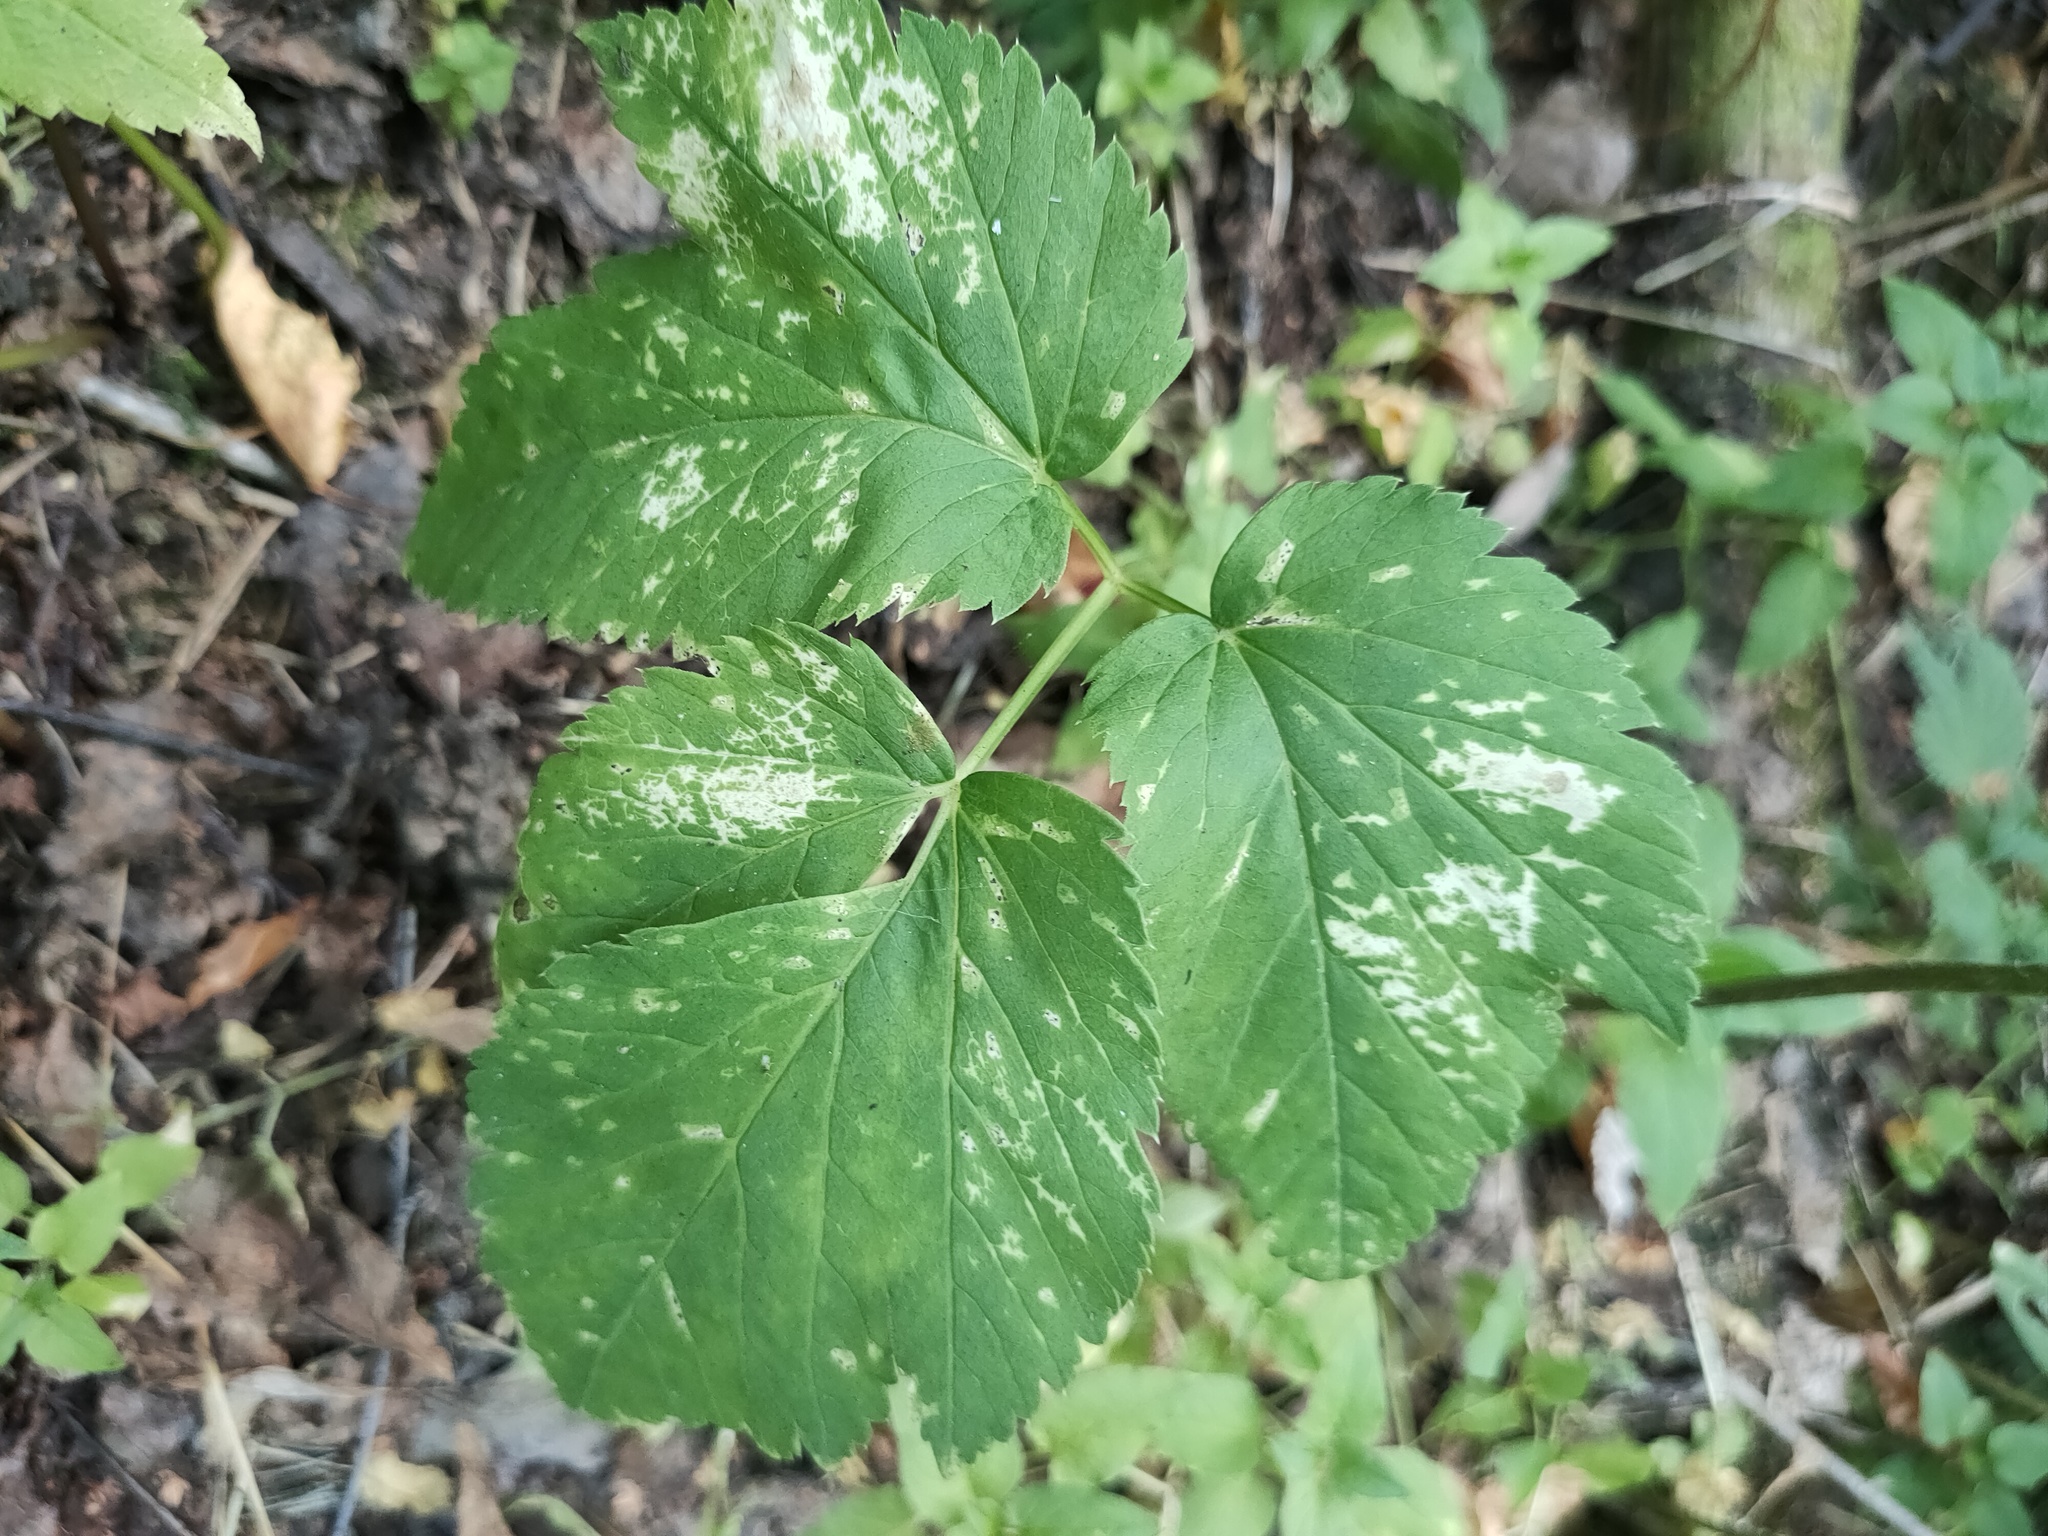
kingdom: Plantae
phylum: Tracheophyta
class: Magnoliopsida
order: Apiales
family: Apiaceae
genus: Aegopodium
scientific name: Aegopodium podagraria
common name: Ground-elder
